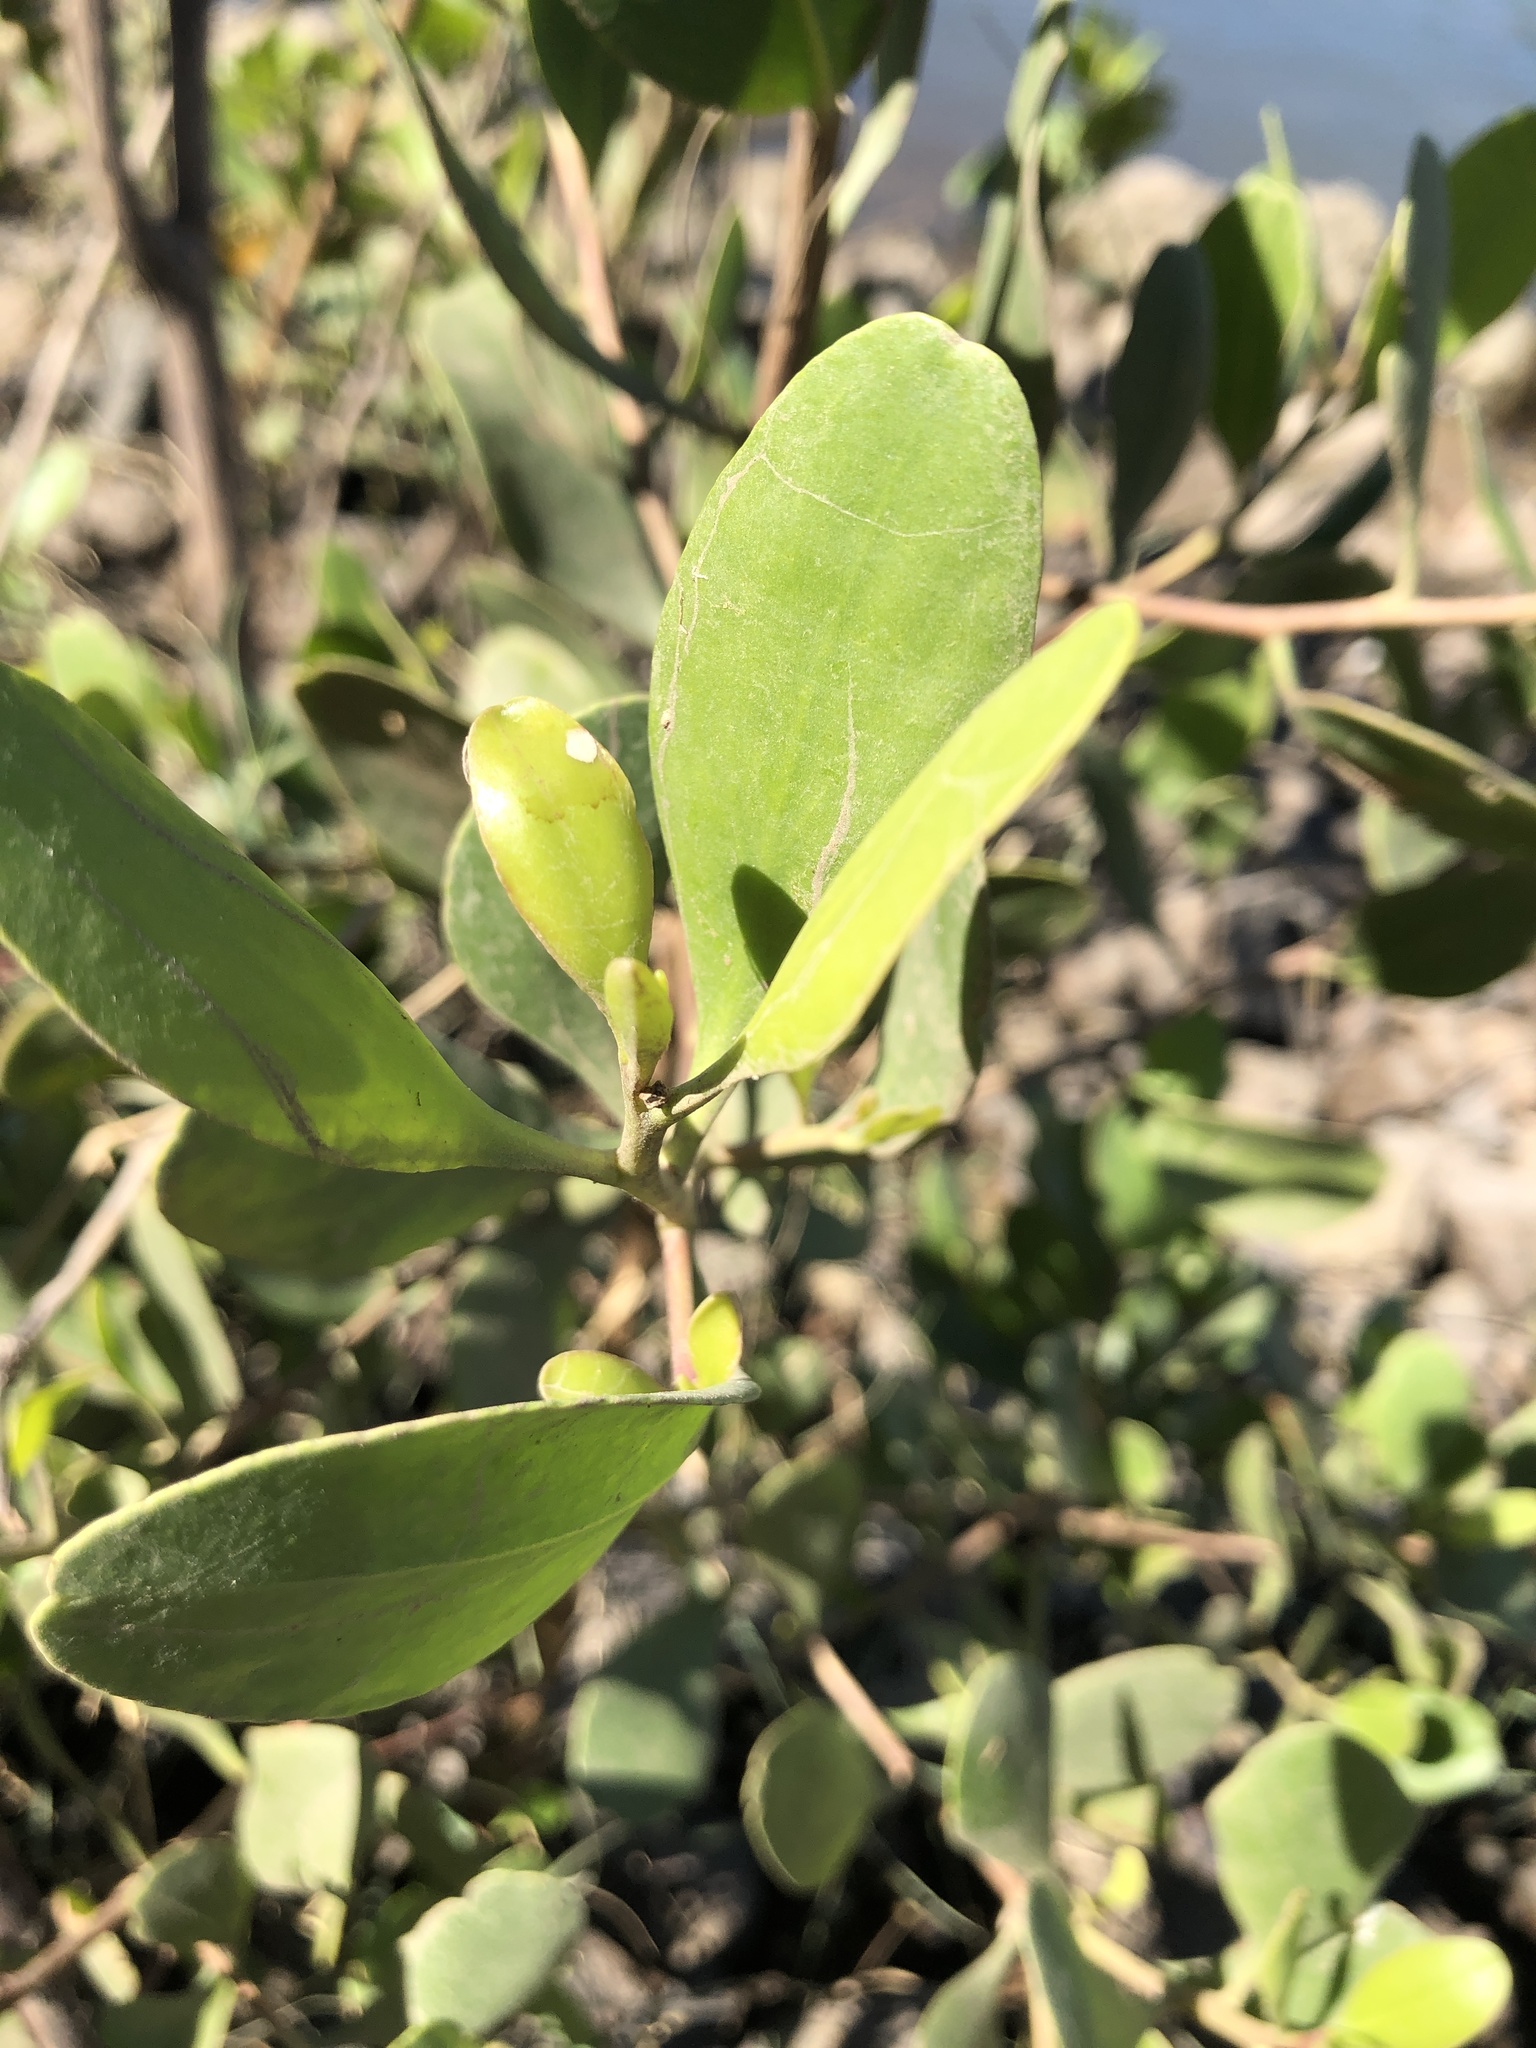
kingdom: Plantae
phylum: Tracheophyta
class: Magnoliopsida
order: Myrtales
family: Combretaceae
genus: Lumnitzera
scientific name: Lumnitzera racemosa
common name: White-flowered black mangrove
